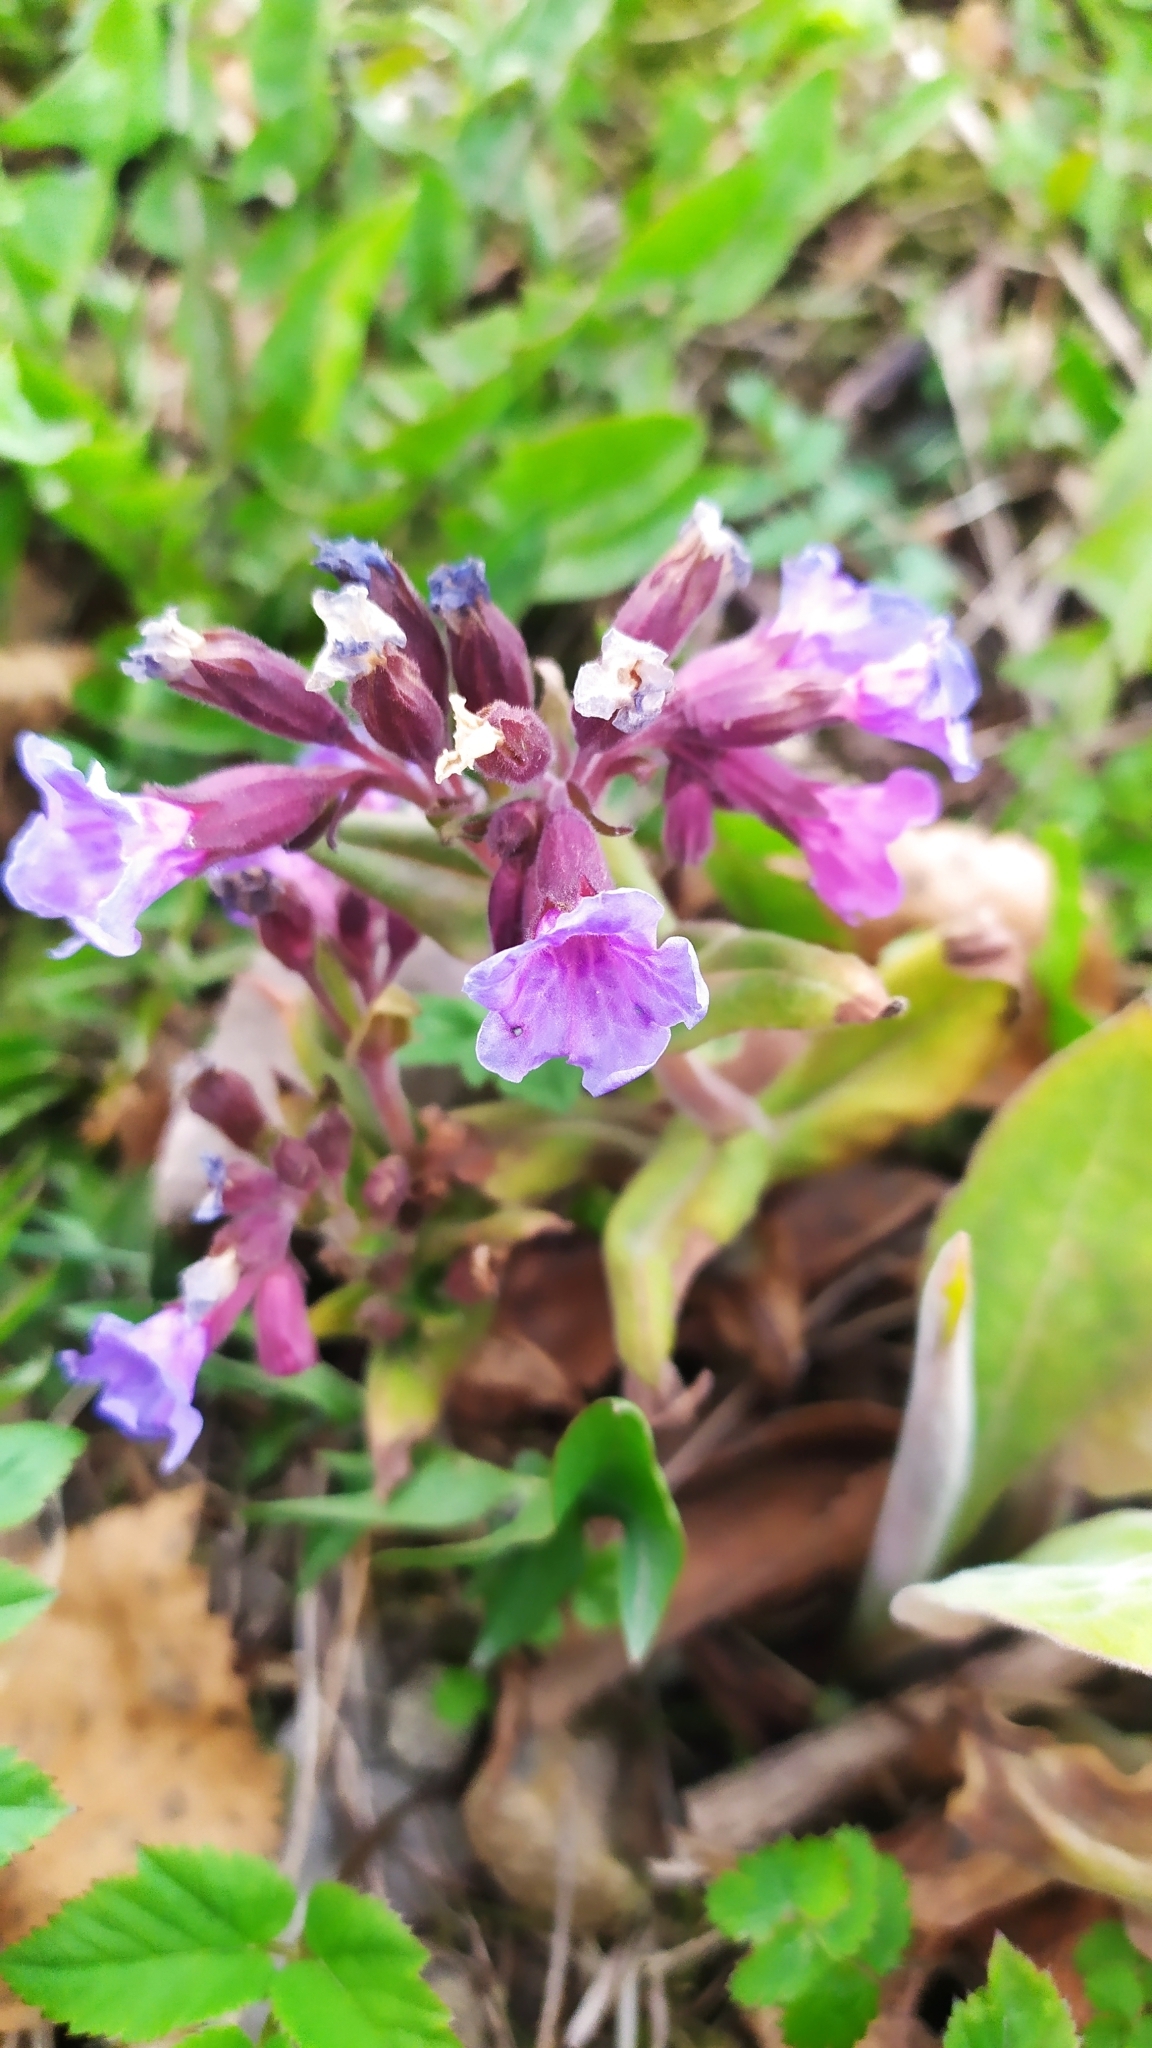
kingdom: Plantae
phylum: Tracheophyta
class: Magnoliopsida
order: Boraginales
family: Boraginaceae
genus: Pulmonaria
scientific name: Pulmonaria mollis
